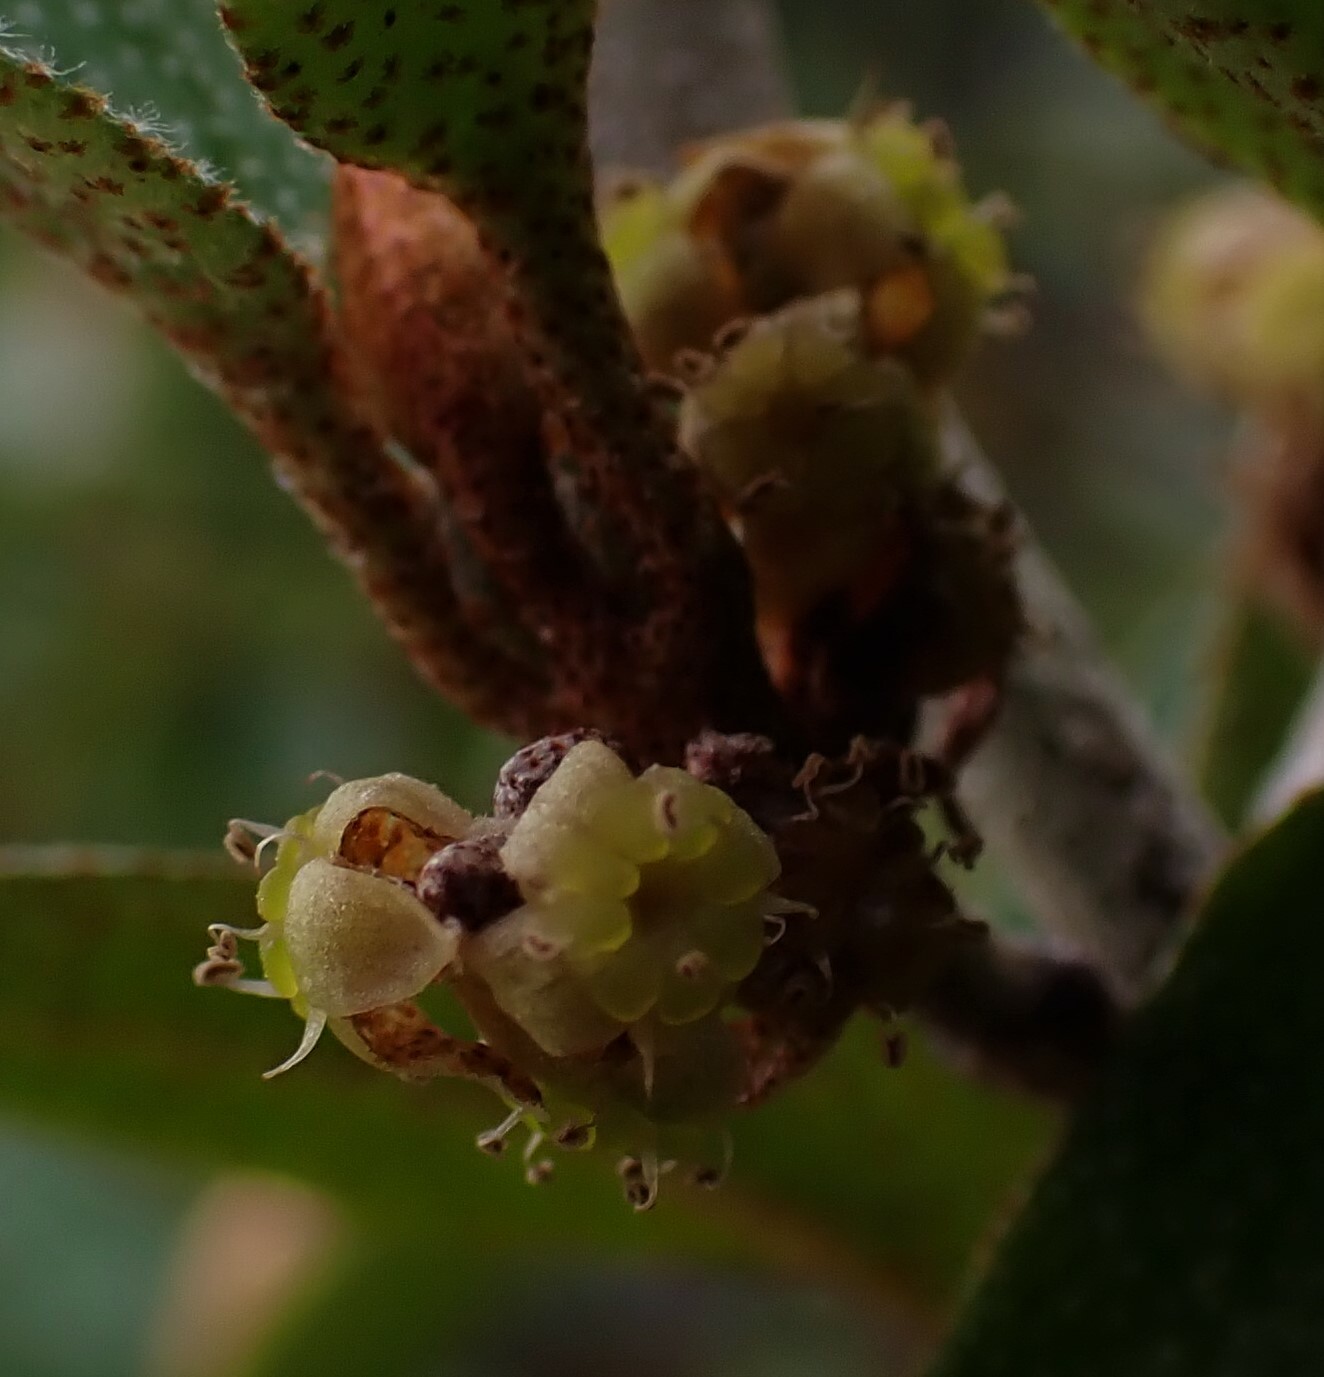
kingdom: Plantae
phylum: Tracheophyta
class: Magnoliopsida
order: Rosales
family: Elaeagnaceae
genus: Shepherdia
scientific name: Shepherdia canadensis
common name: Soapberry
